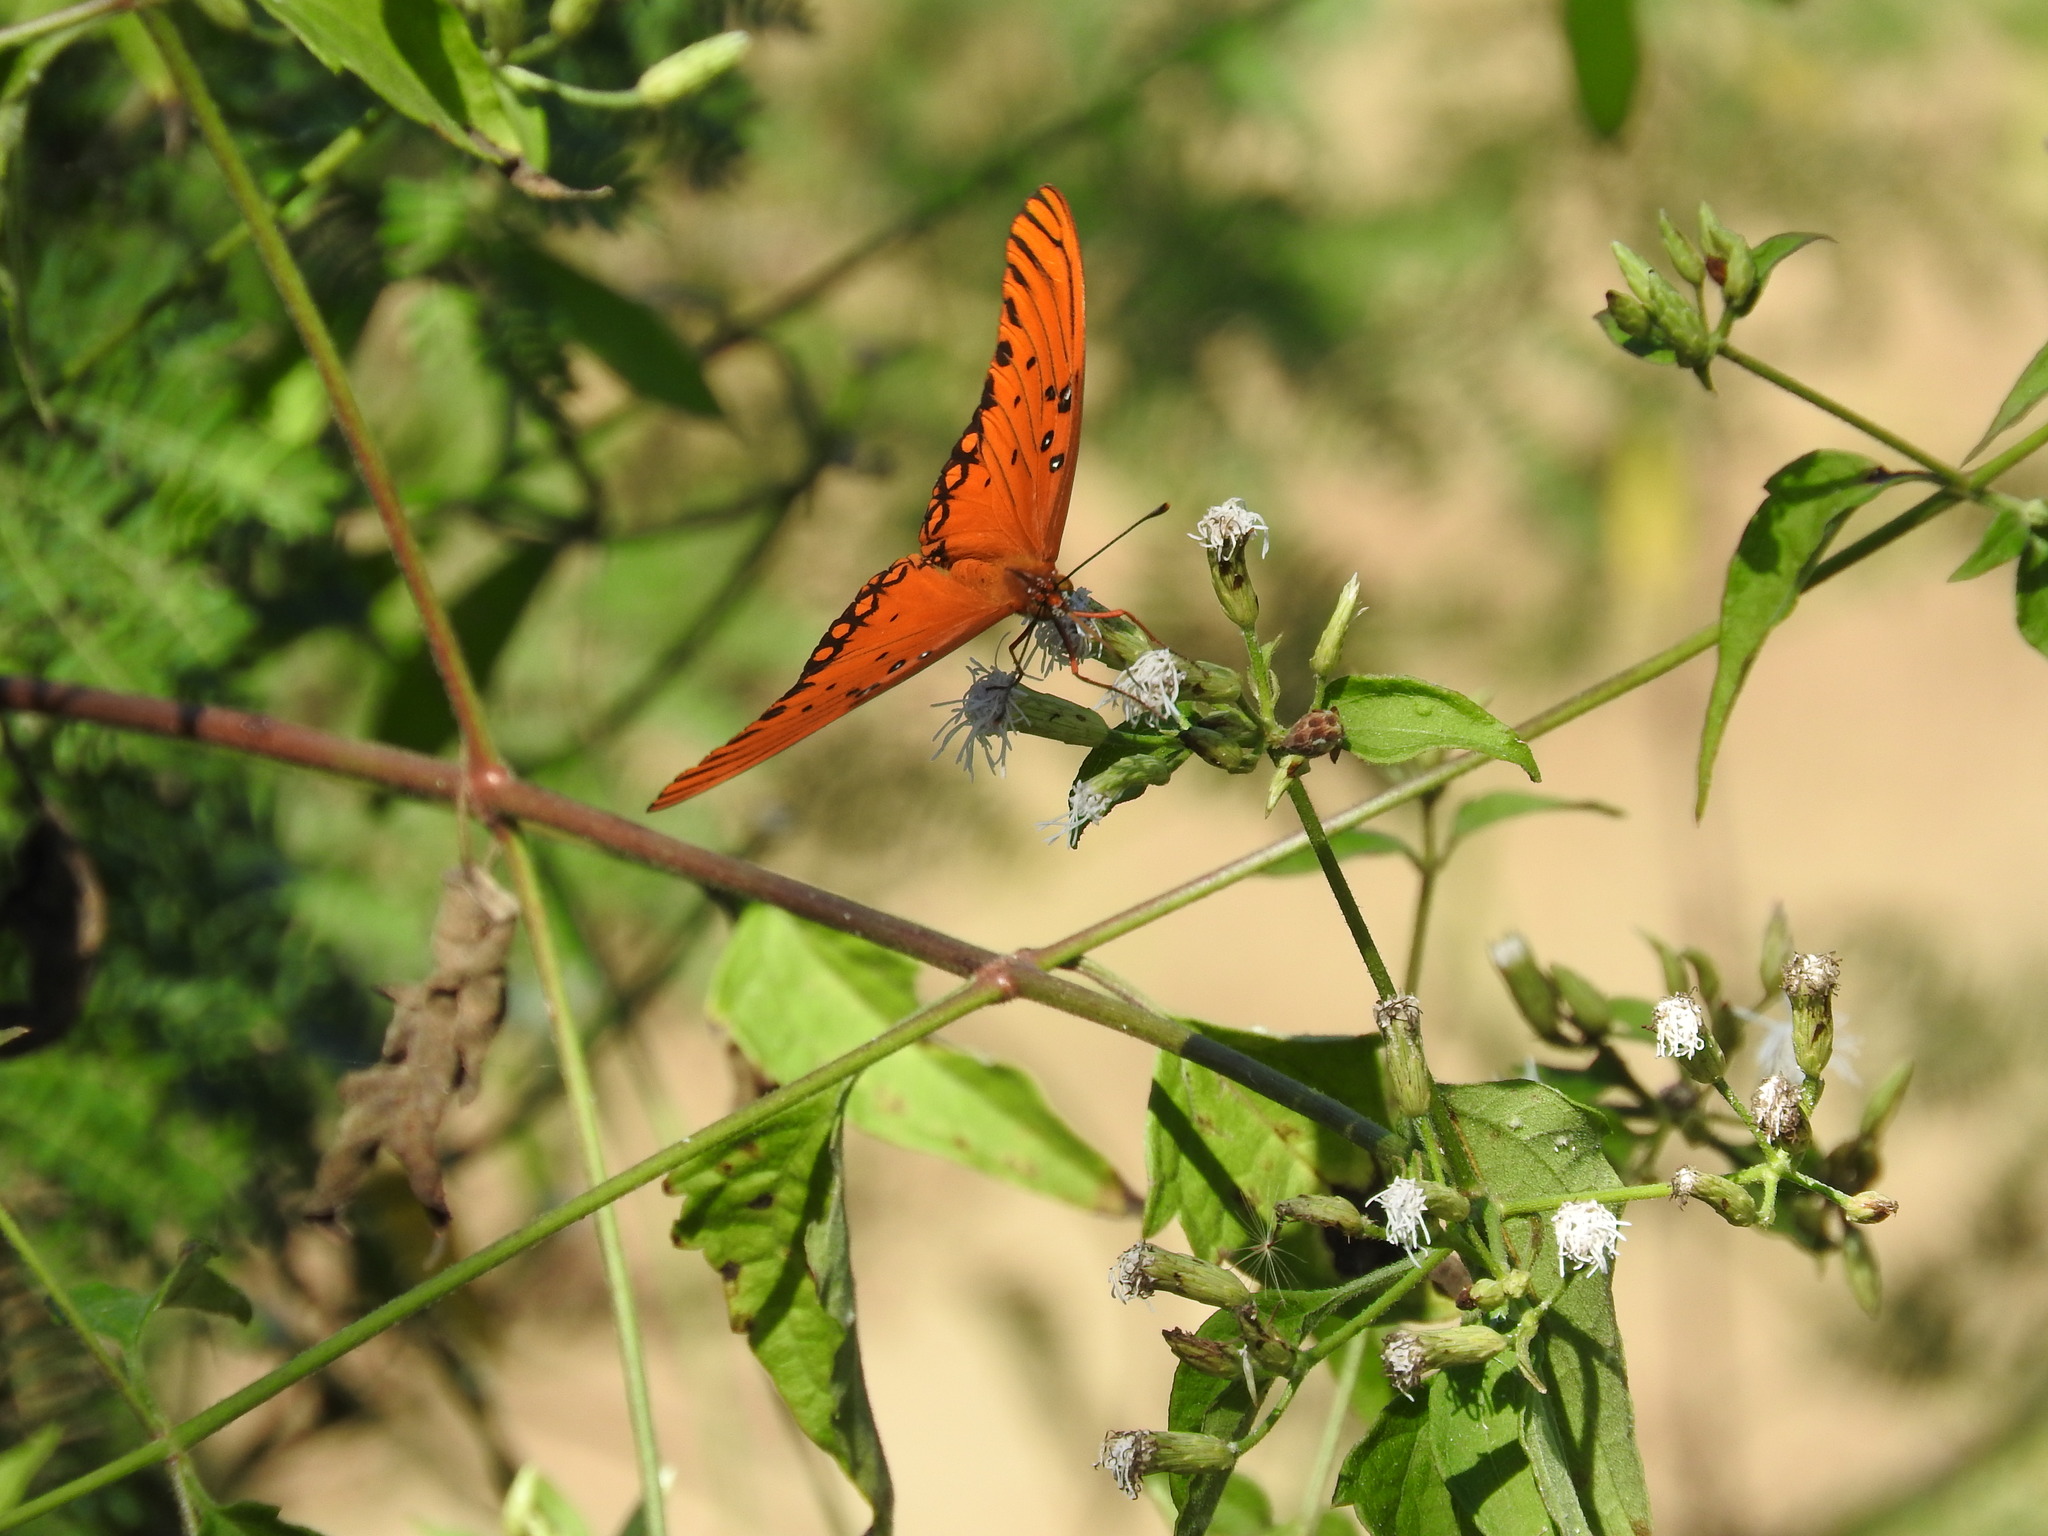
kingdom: Animalia
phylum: Arthropoda
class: Insecta
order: Lepidoptera
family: Nymphalidae
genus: Dione
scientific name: Dione vanillae
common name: Gulf fritillary
